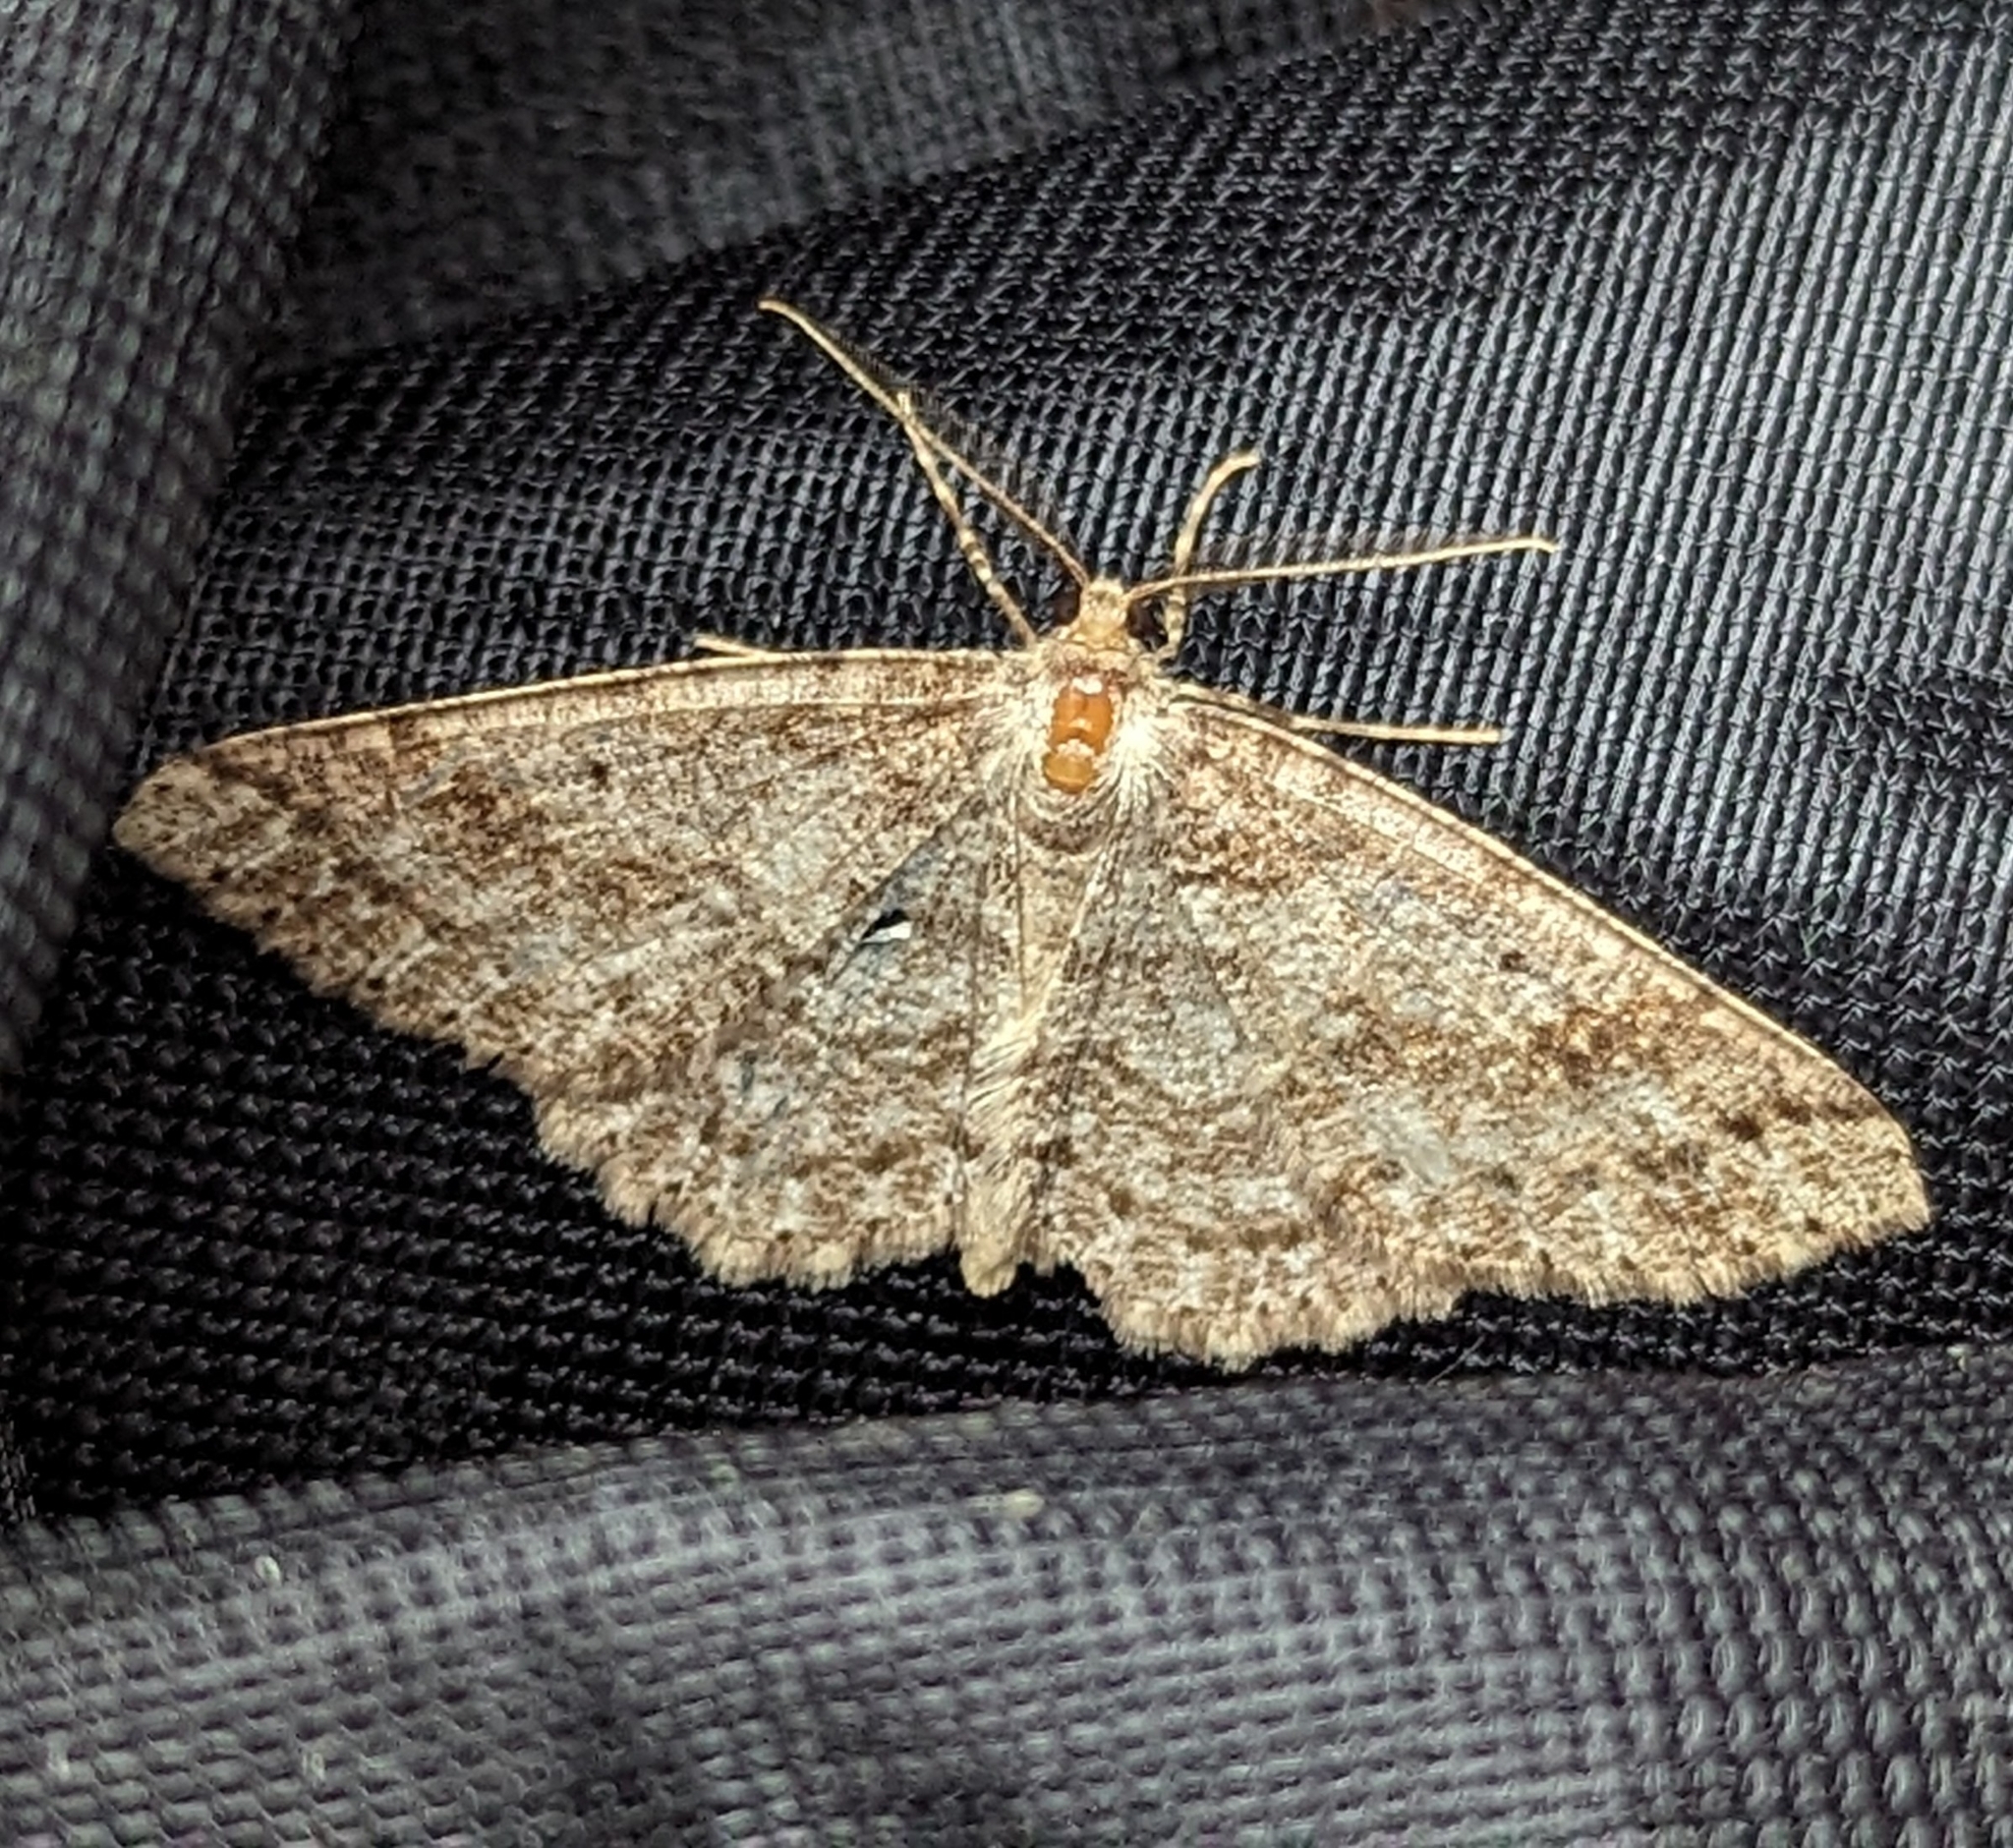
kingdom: Animalia
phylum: Arthropoda
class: Insecta
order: Lepidoptera
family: Geometridae
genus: Melanolophia
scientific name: Melanolophia imitata
